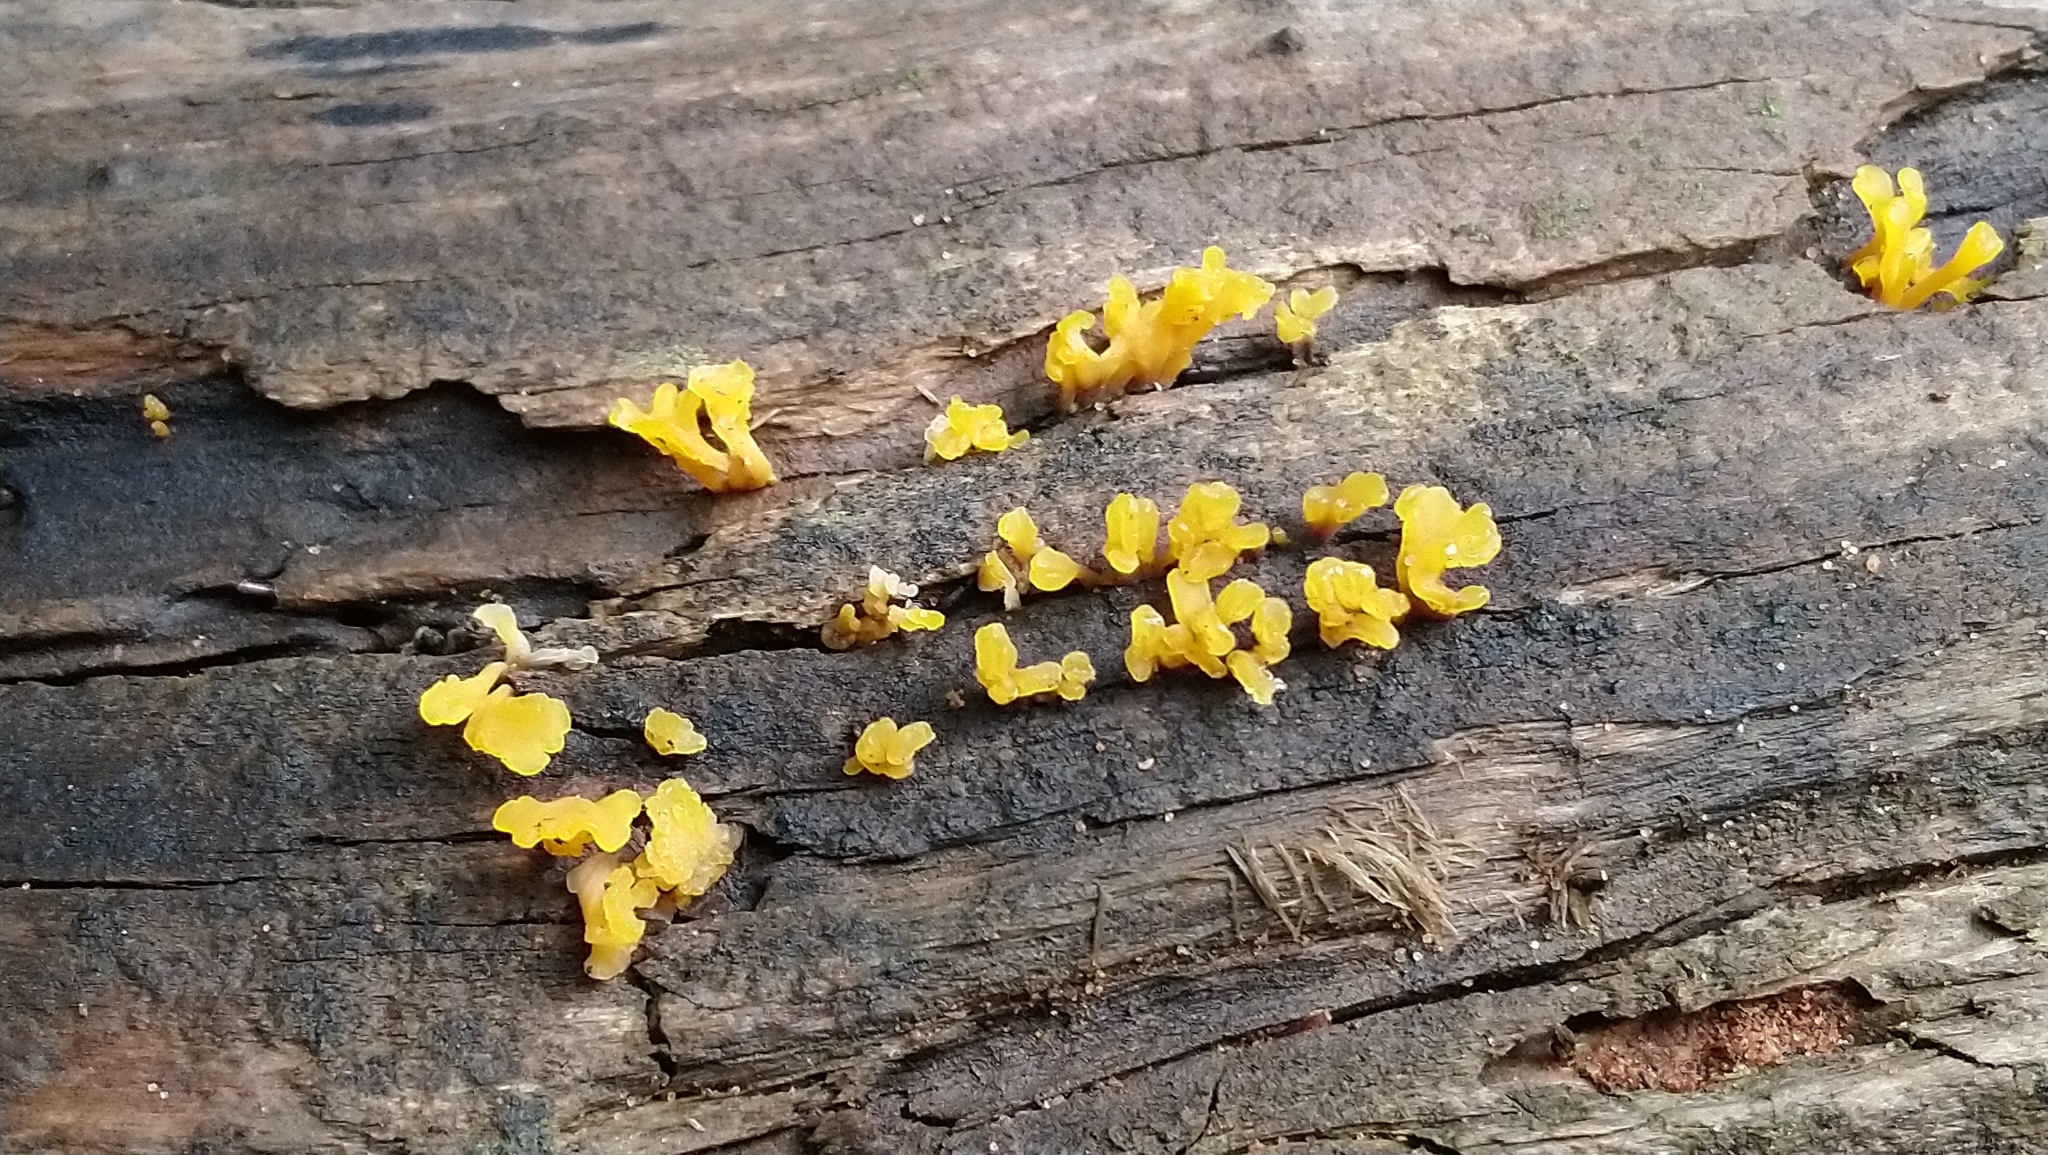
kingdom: Fungi
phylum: Basidiomycota
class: Dacrymycetes
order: Dacrymycetales
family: Dacrymycetaceae
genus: Dacrymyces
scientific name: Dacrymyces spathularius
